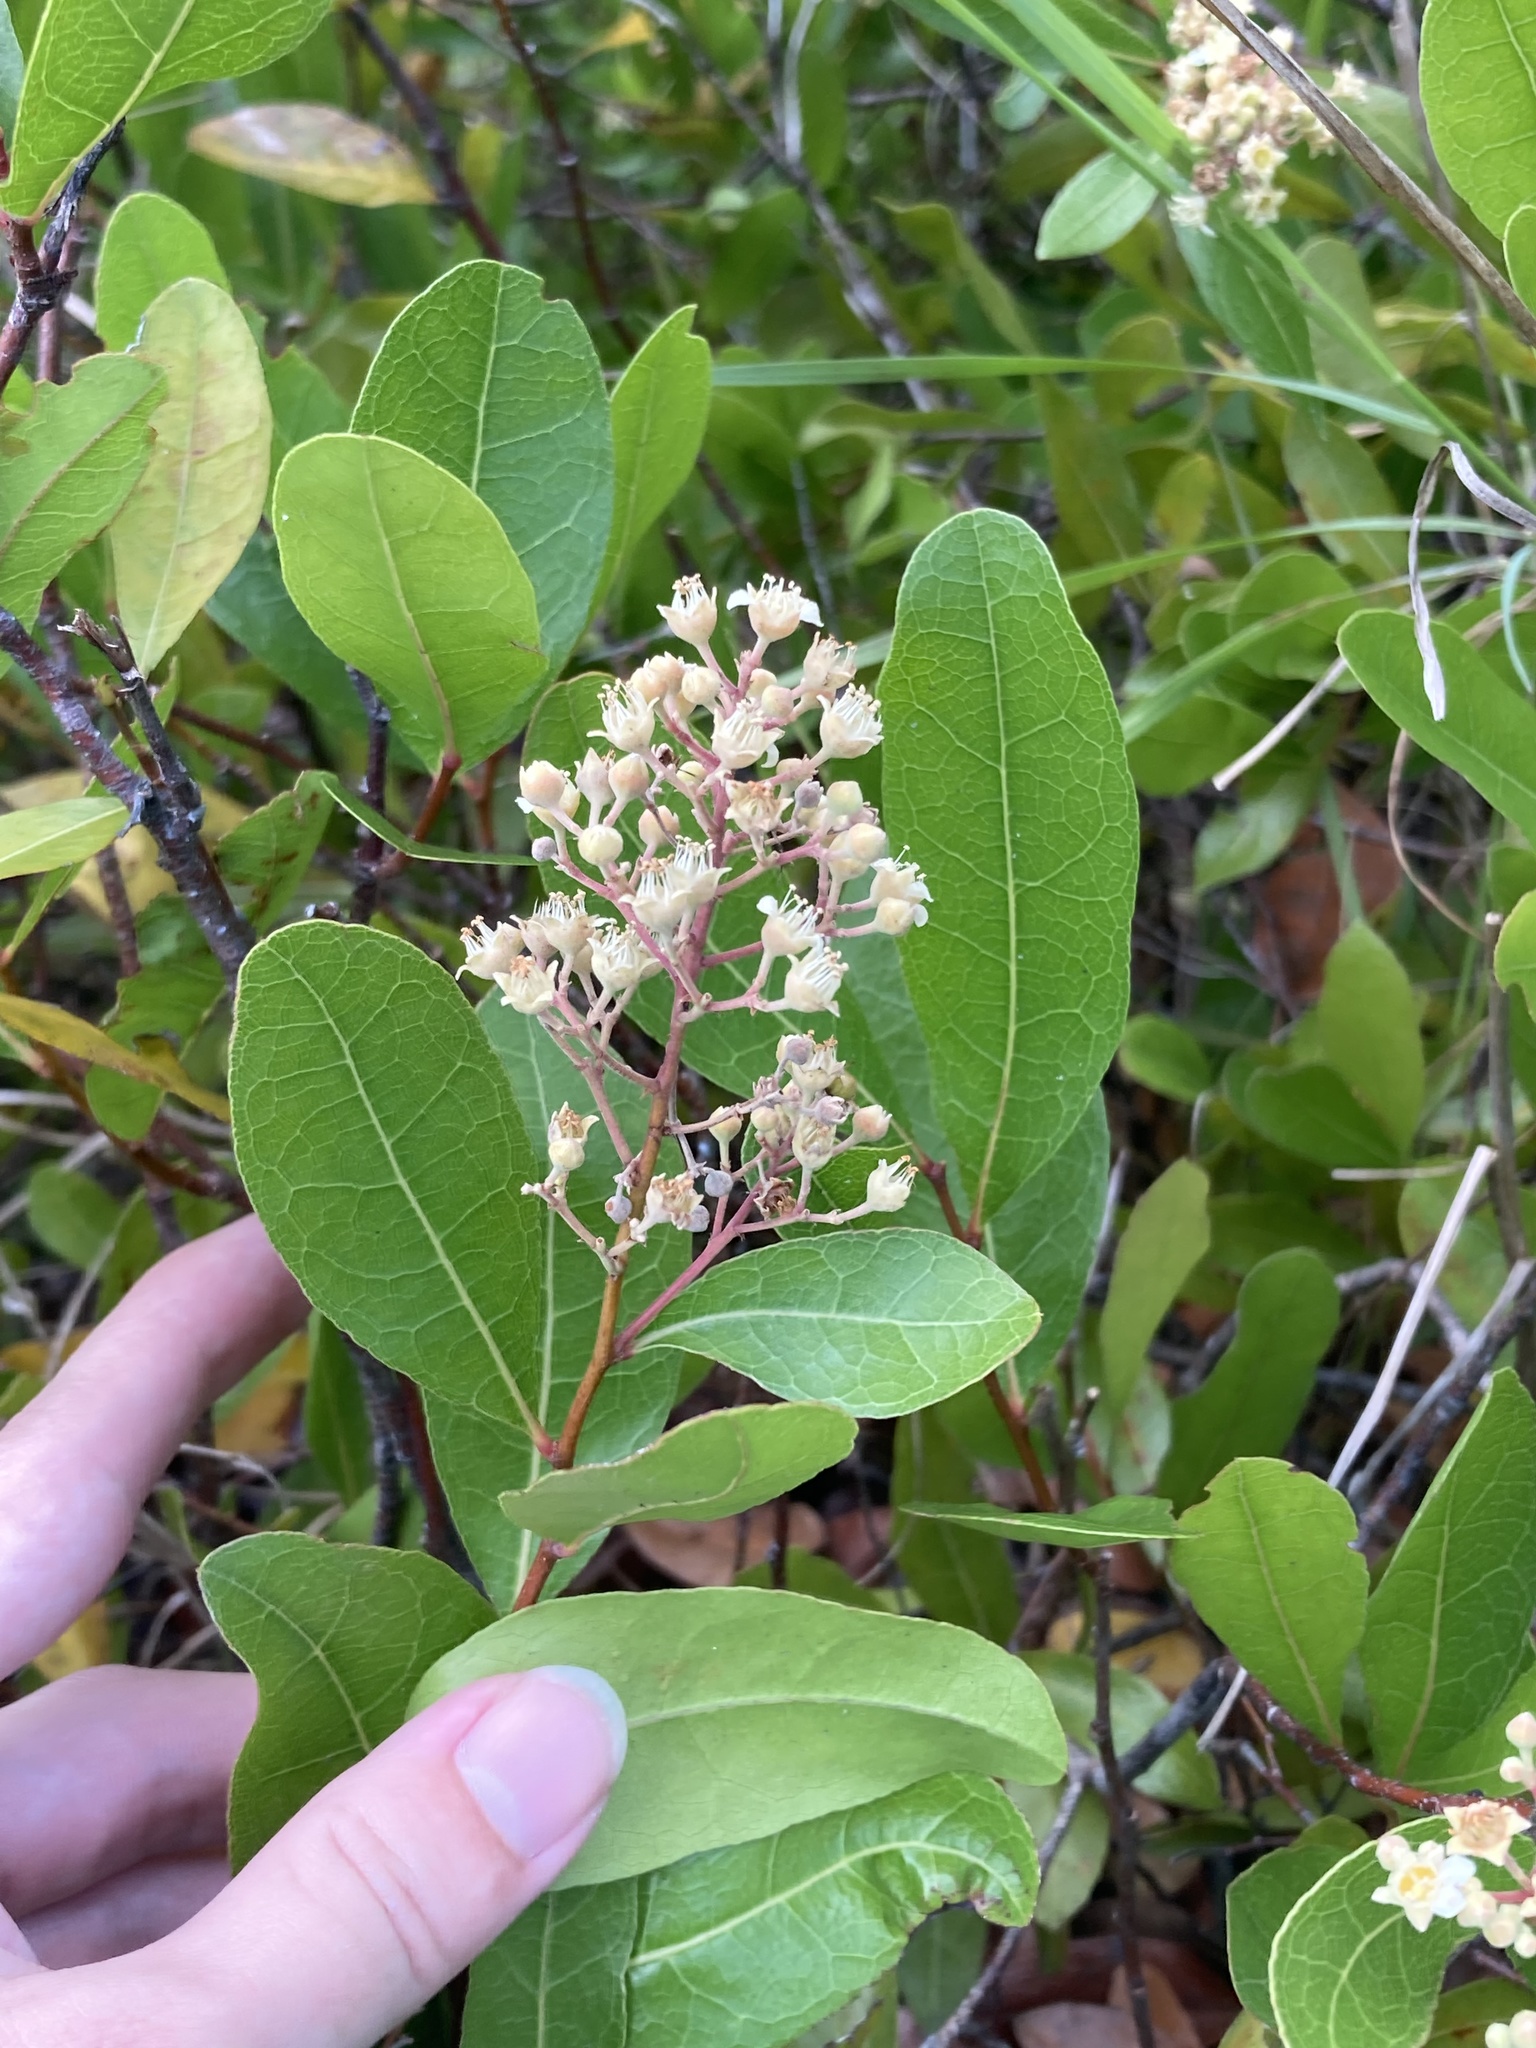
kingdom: Plantae
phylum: Tracheophyta
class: Magnoliopsida
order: Malpighiales
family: Chrysobalanaceae
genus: Geobalanus
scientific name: Geobalanus oblongifolius
